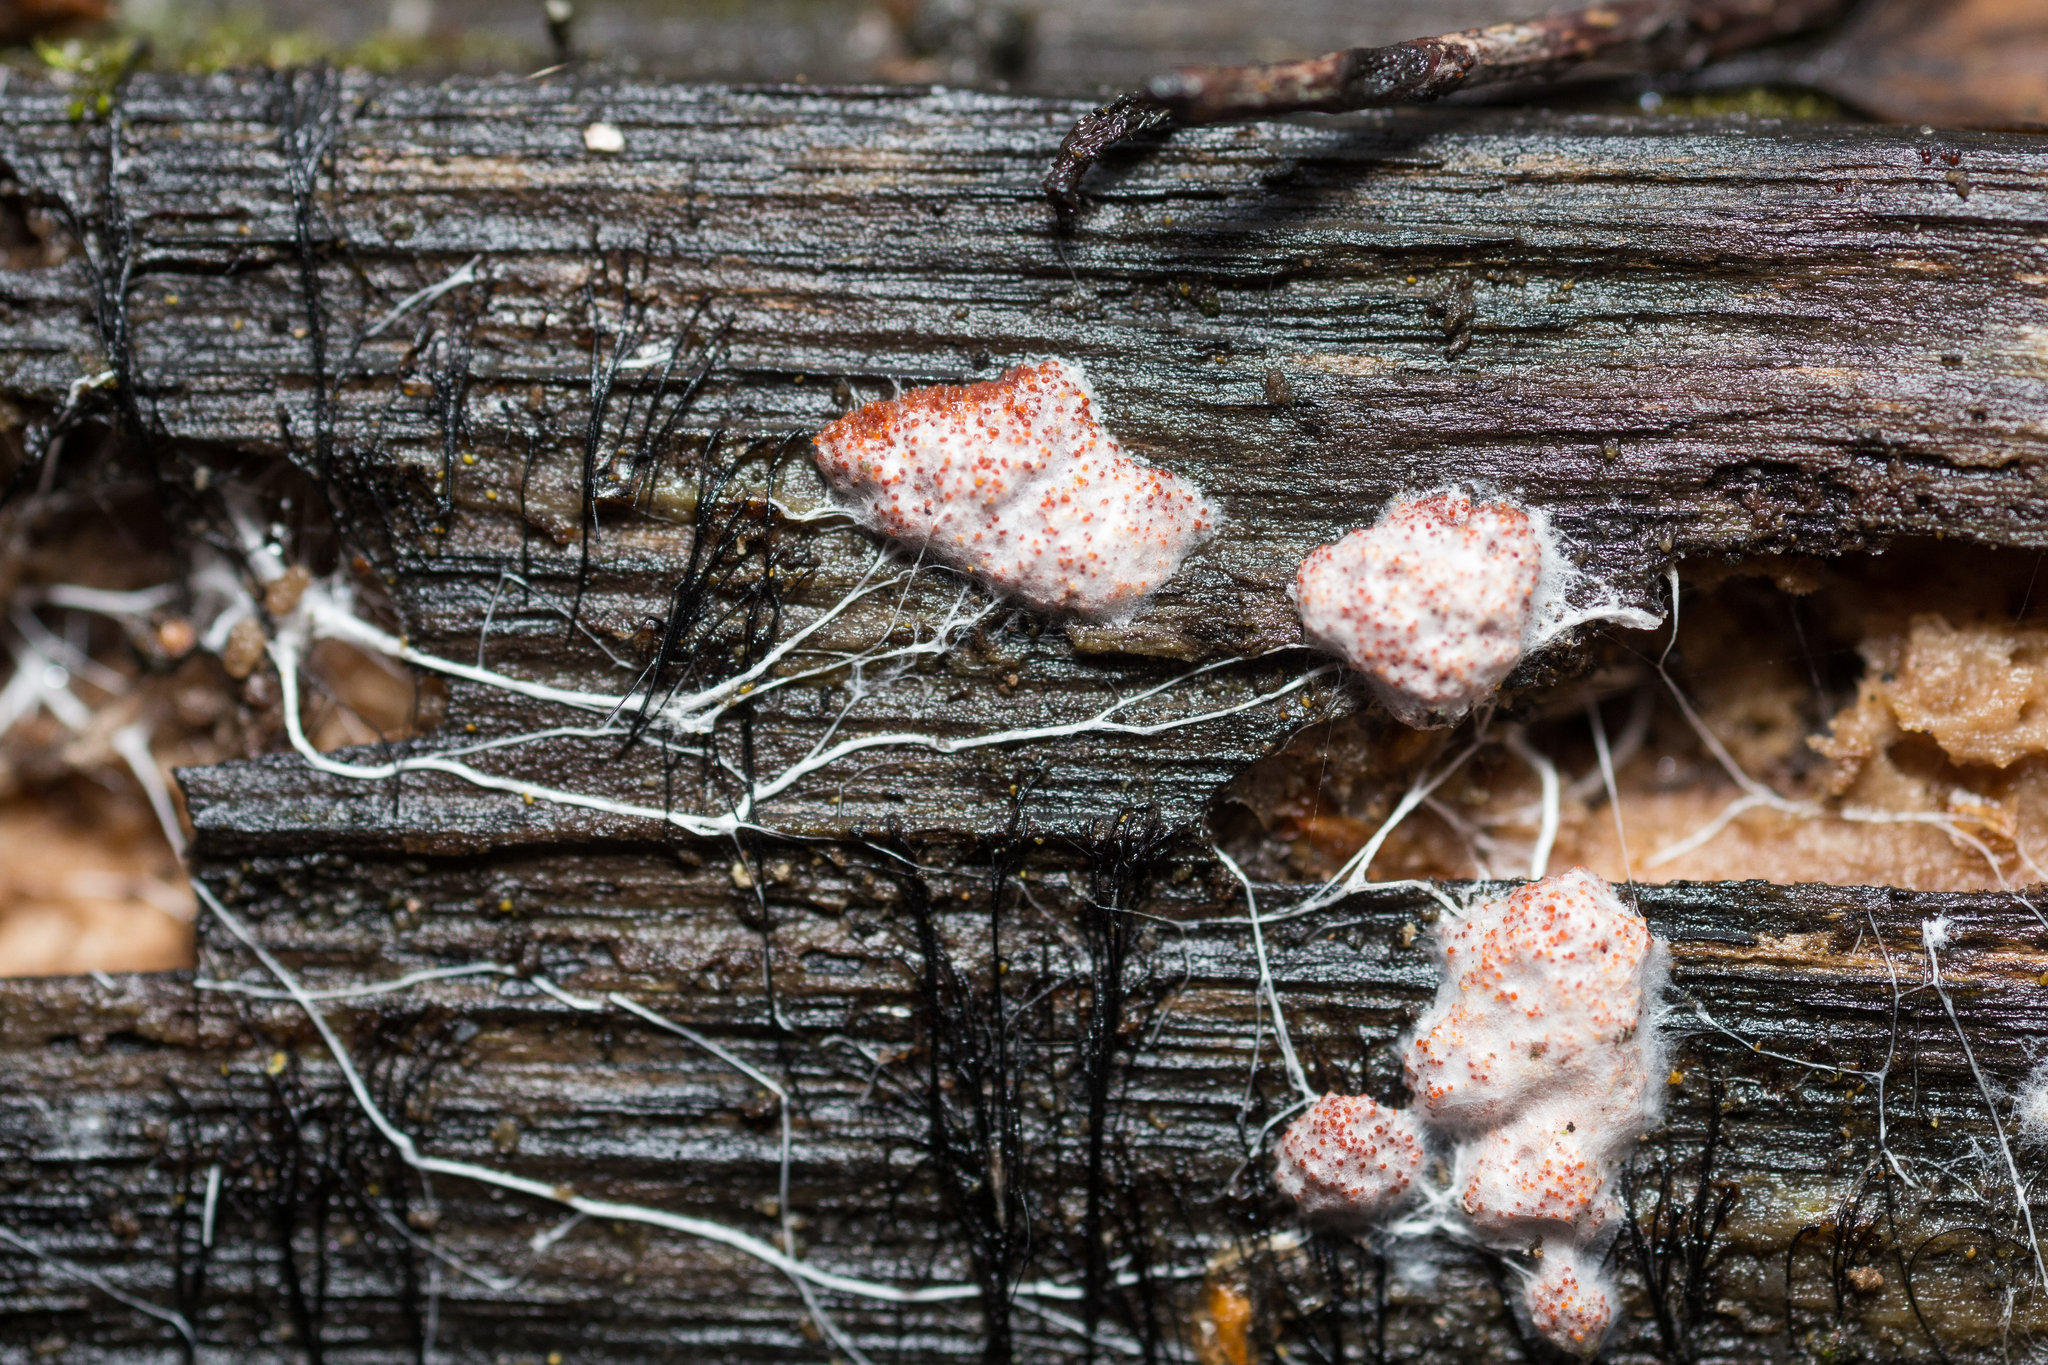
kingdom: Fungi
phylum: Basidiomycota
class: Agaricomycetes
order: Agaricales
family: Stephanosporaceae
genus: Myriococcum
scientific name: Myriococcum praecox
